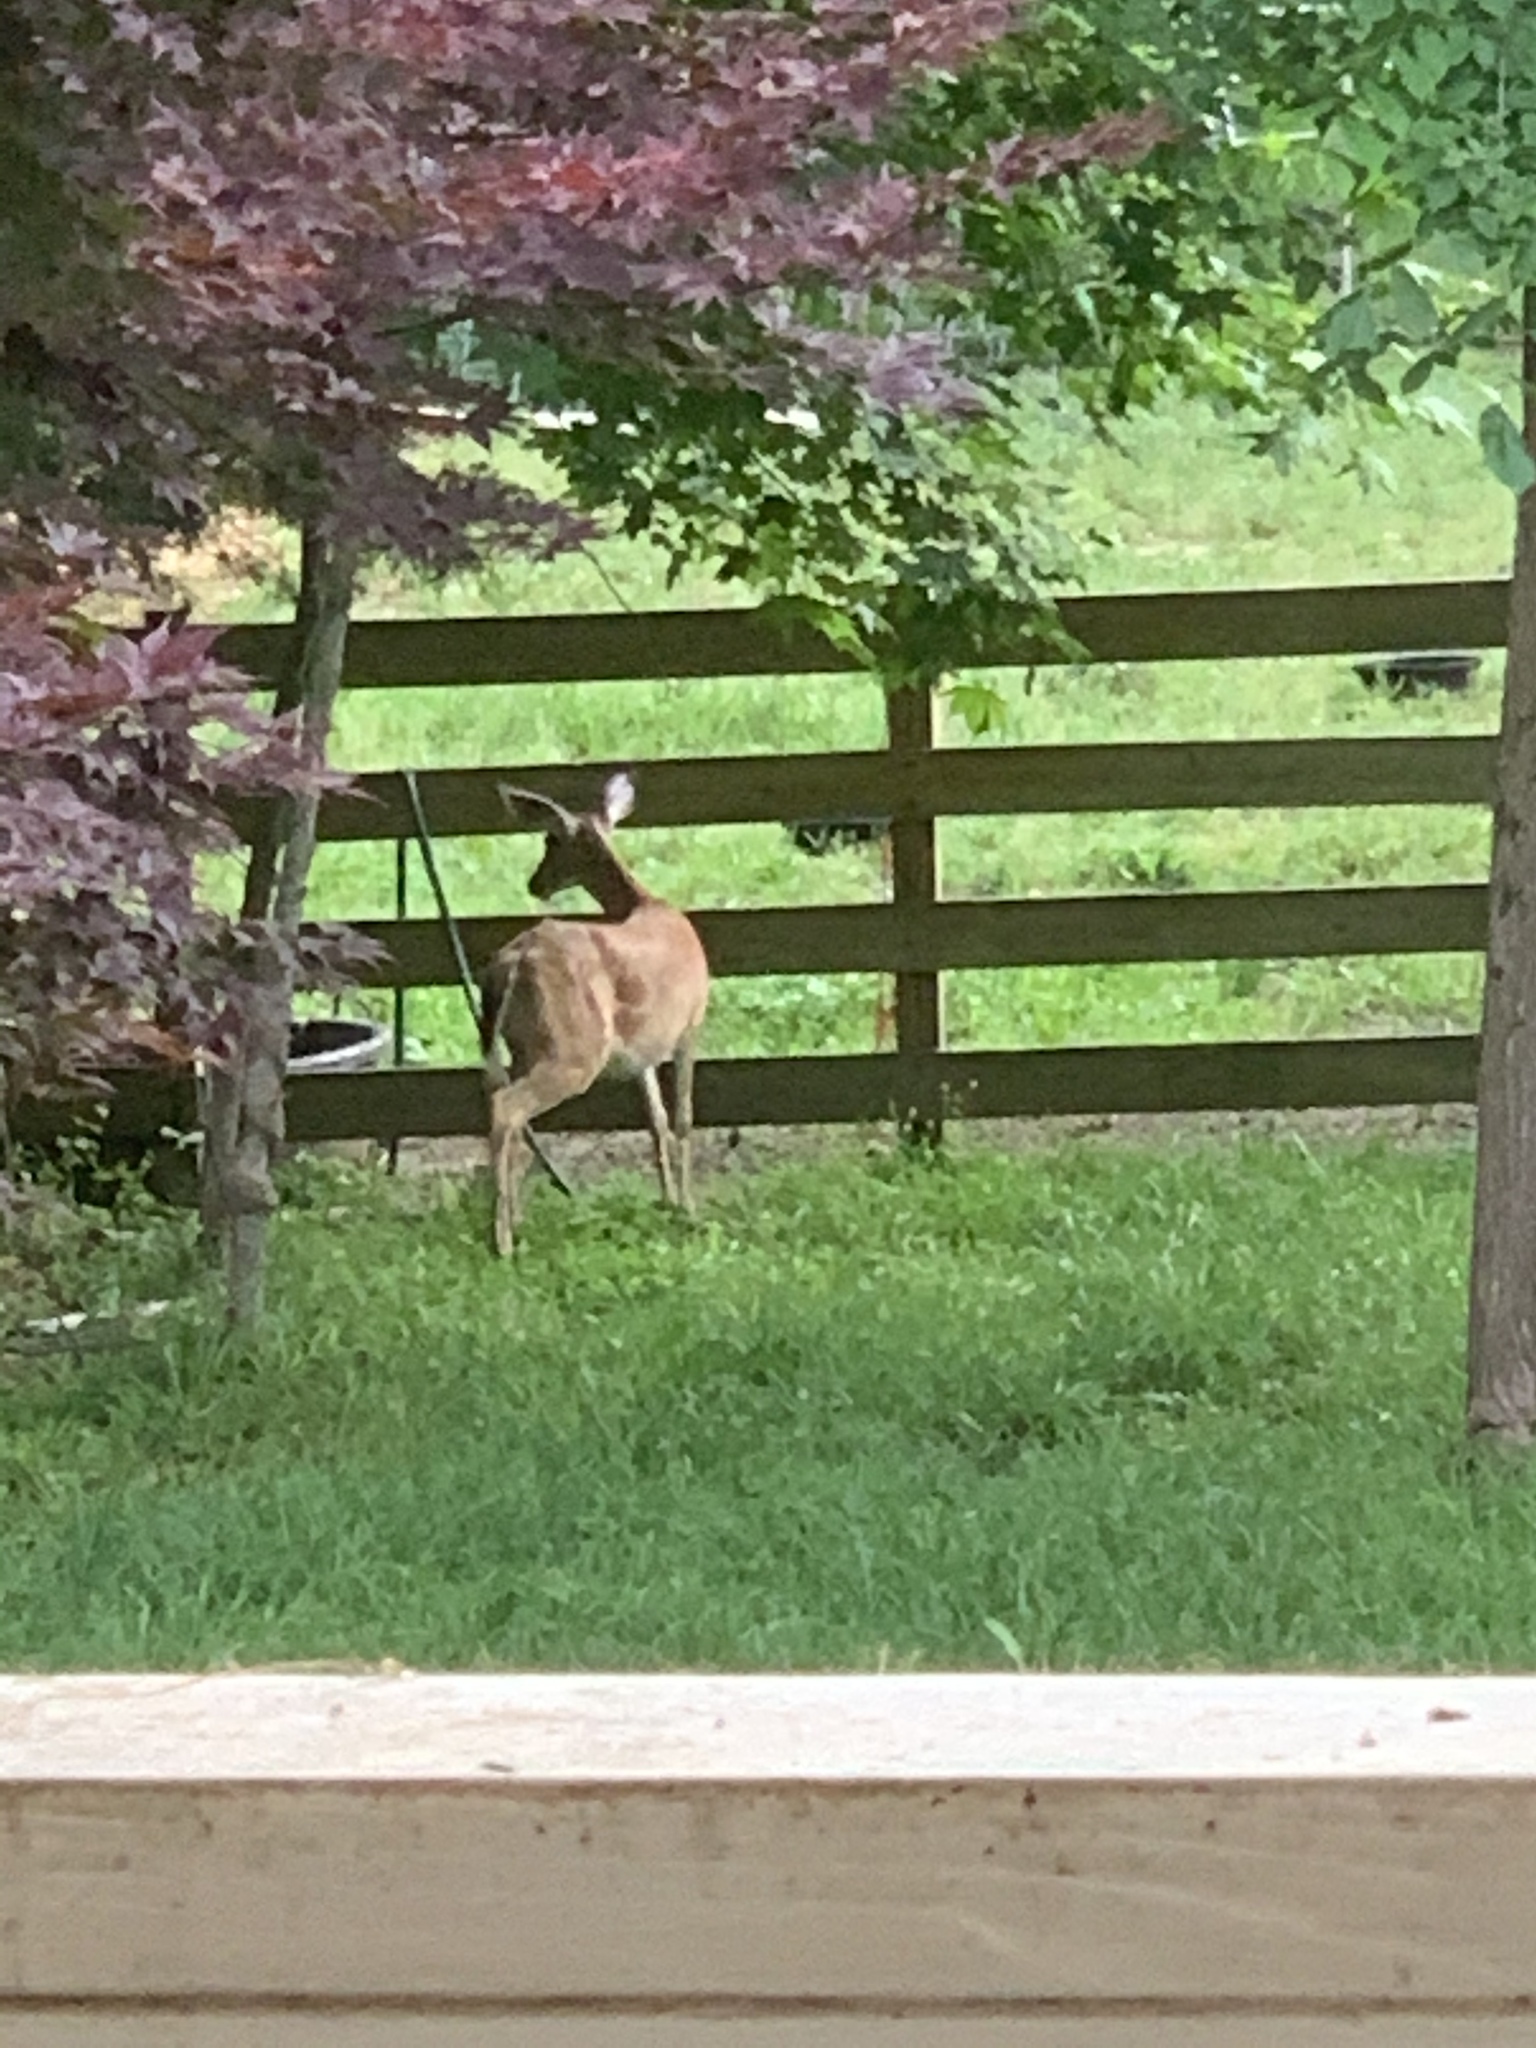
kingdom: Animalia
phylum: Chordata
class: Mammalia
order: Artiodactyla
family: Cervidae
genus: Odocoileus
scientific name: Odocoileus virginianus
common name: White-tailed deer
